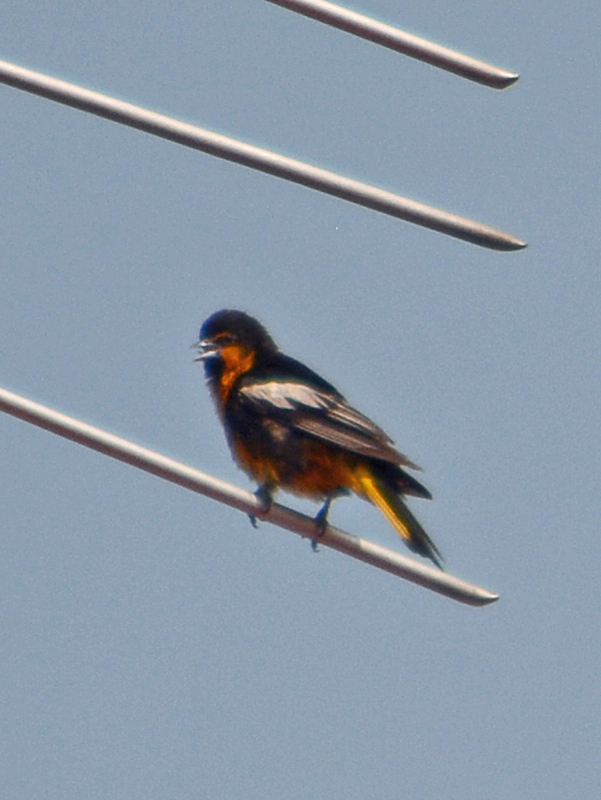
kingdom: Animalia
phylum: Chordata
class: Aves
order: Passeriformes
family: Icteridae
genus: Icterus
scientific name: Icterus abeillei
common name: Black-backed oriole
